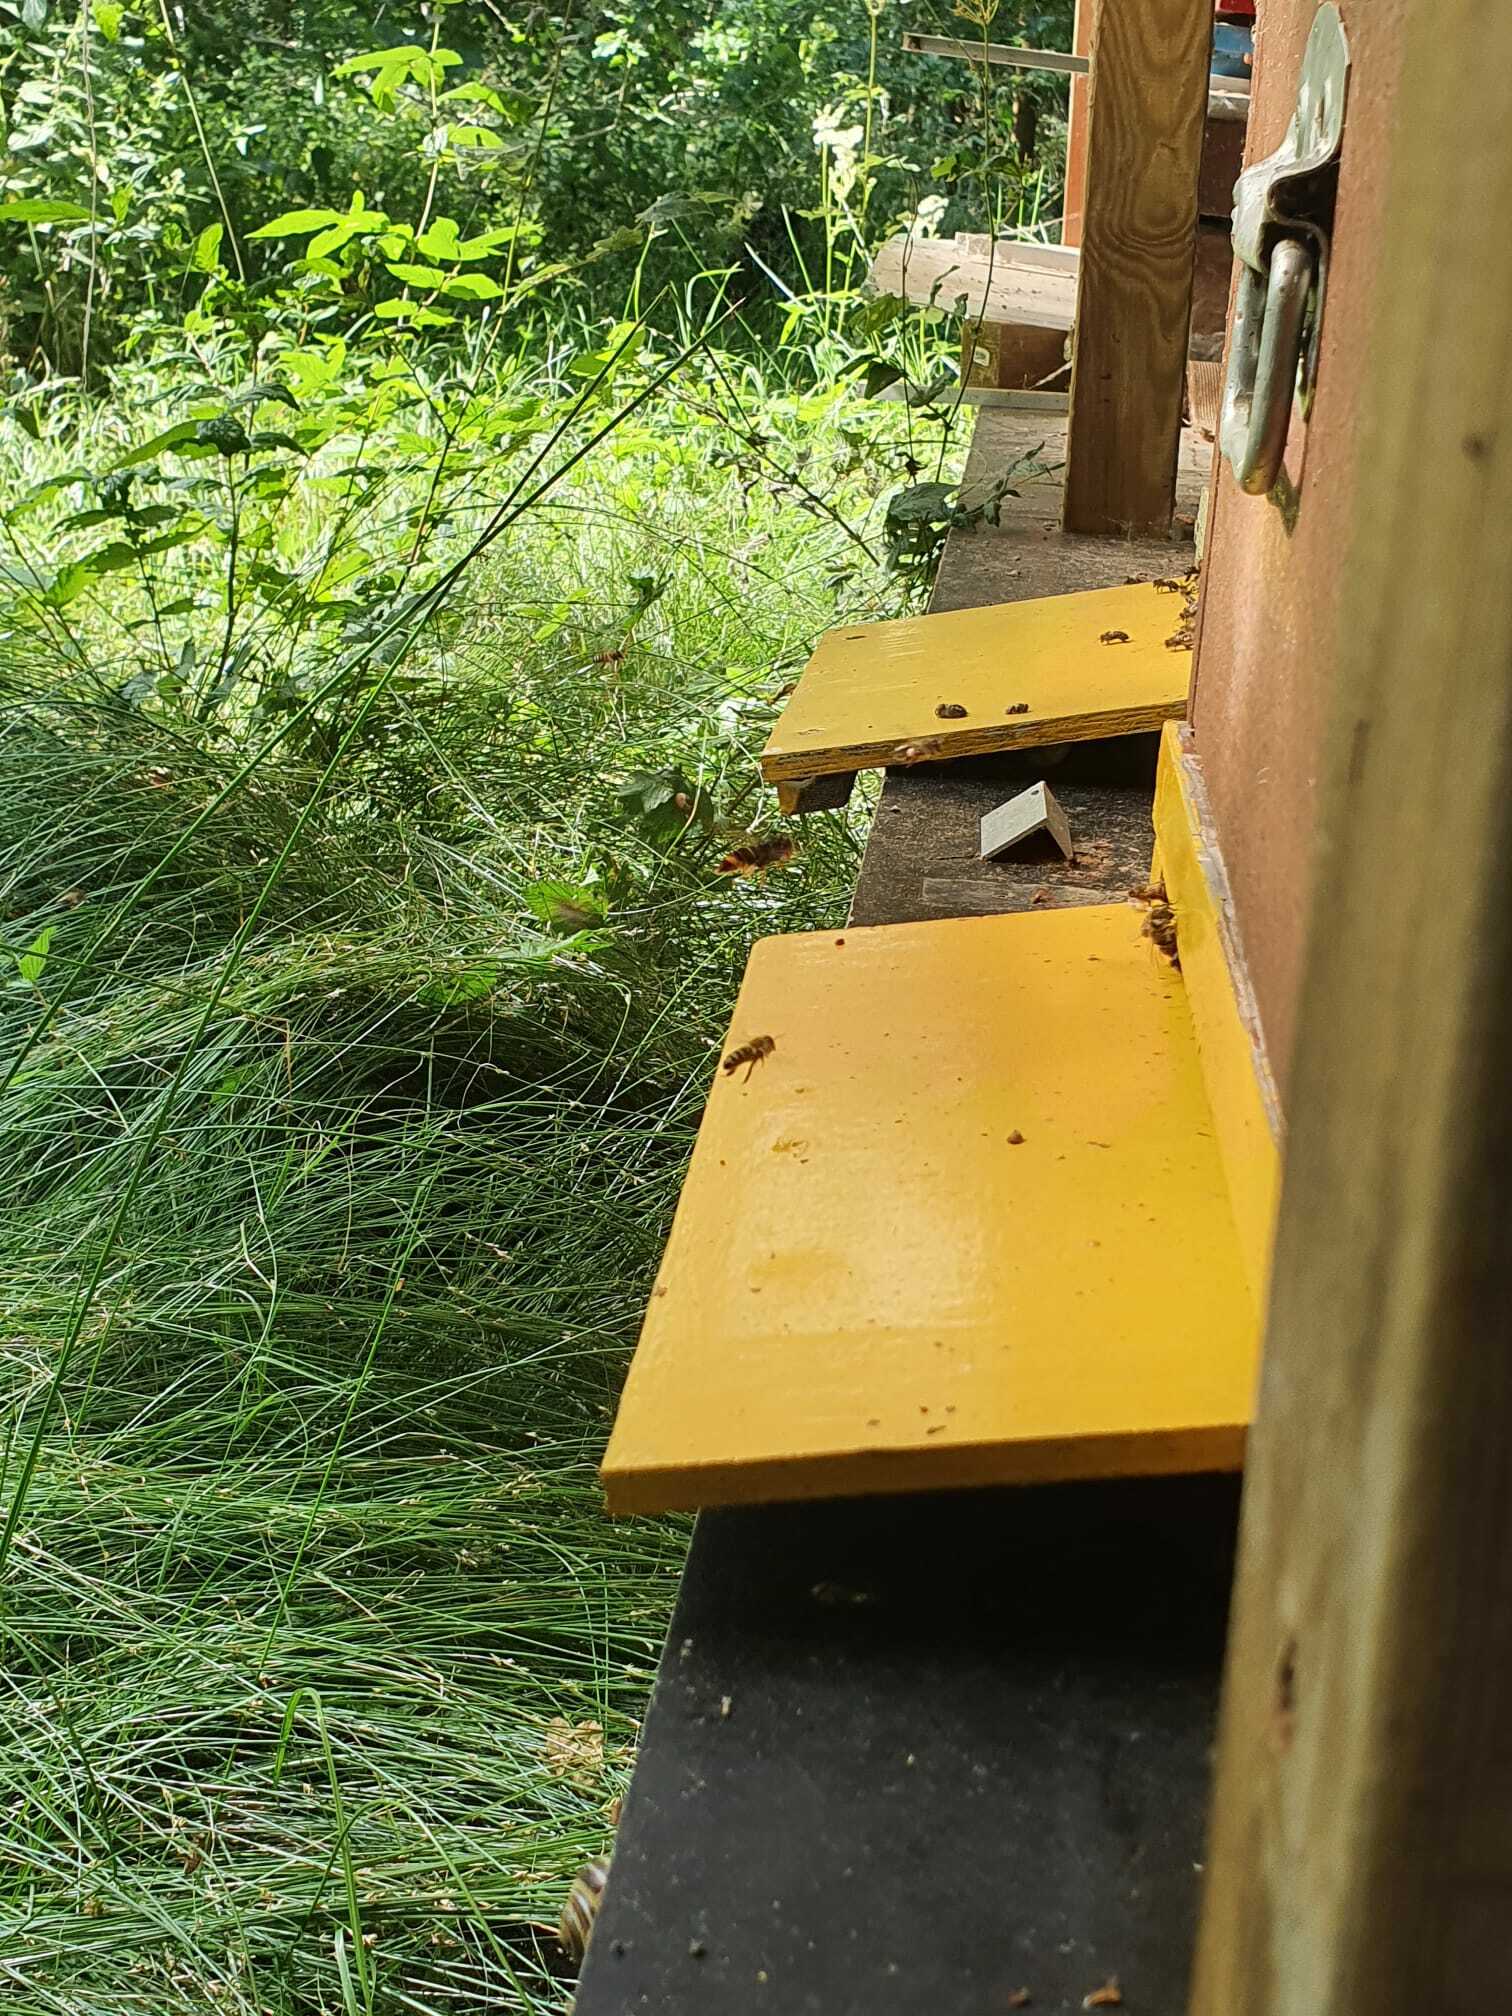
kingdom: Animalia
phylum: Arthropoda
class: Insecta
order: Hymenoptera
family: Vespidae
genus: Vespa
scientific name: Vespa velutina
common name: Asian hornet
